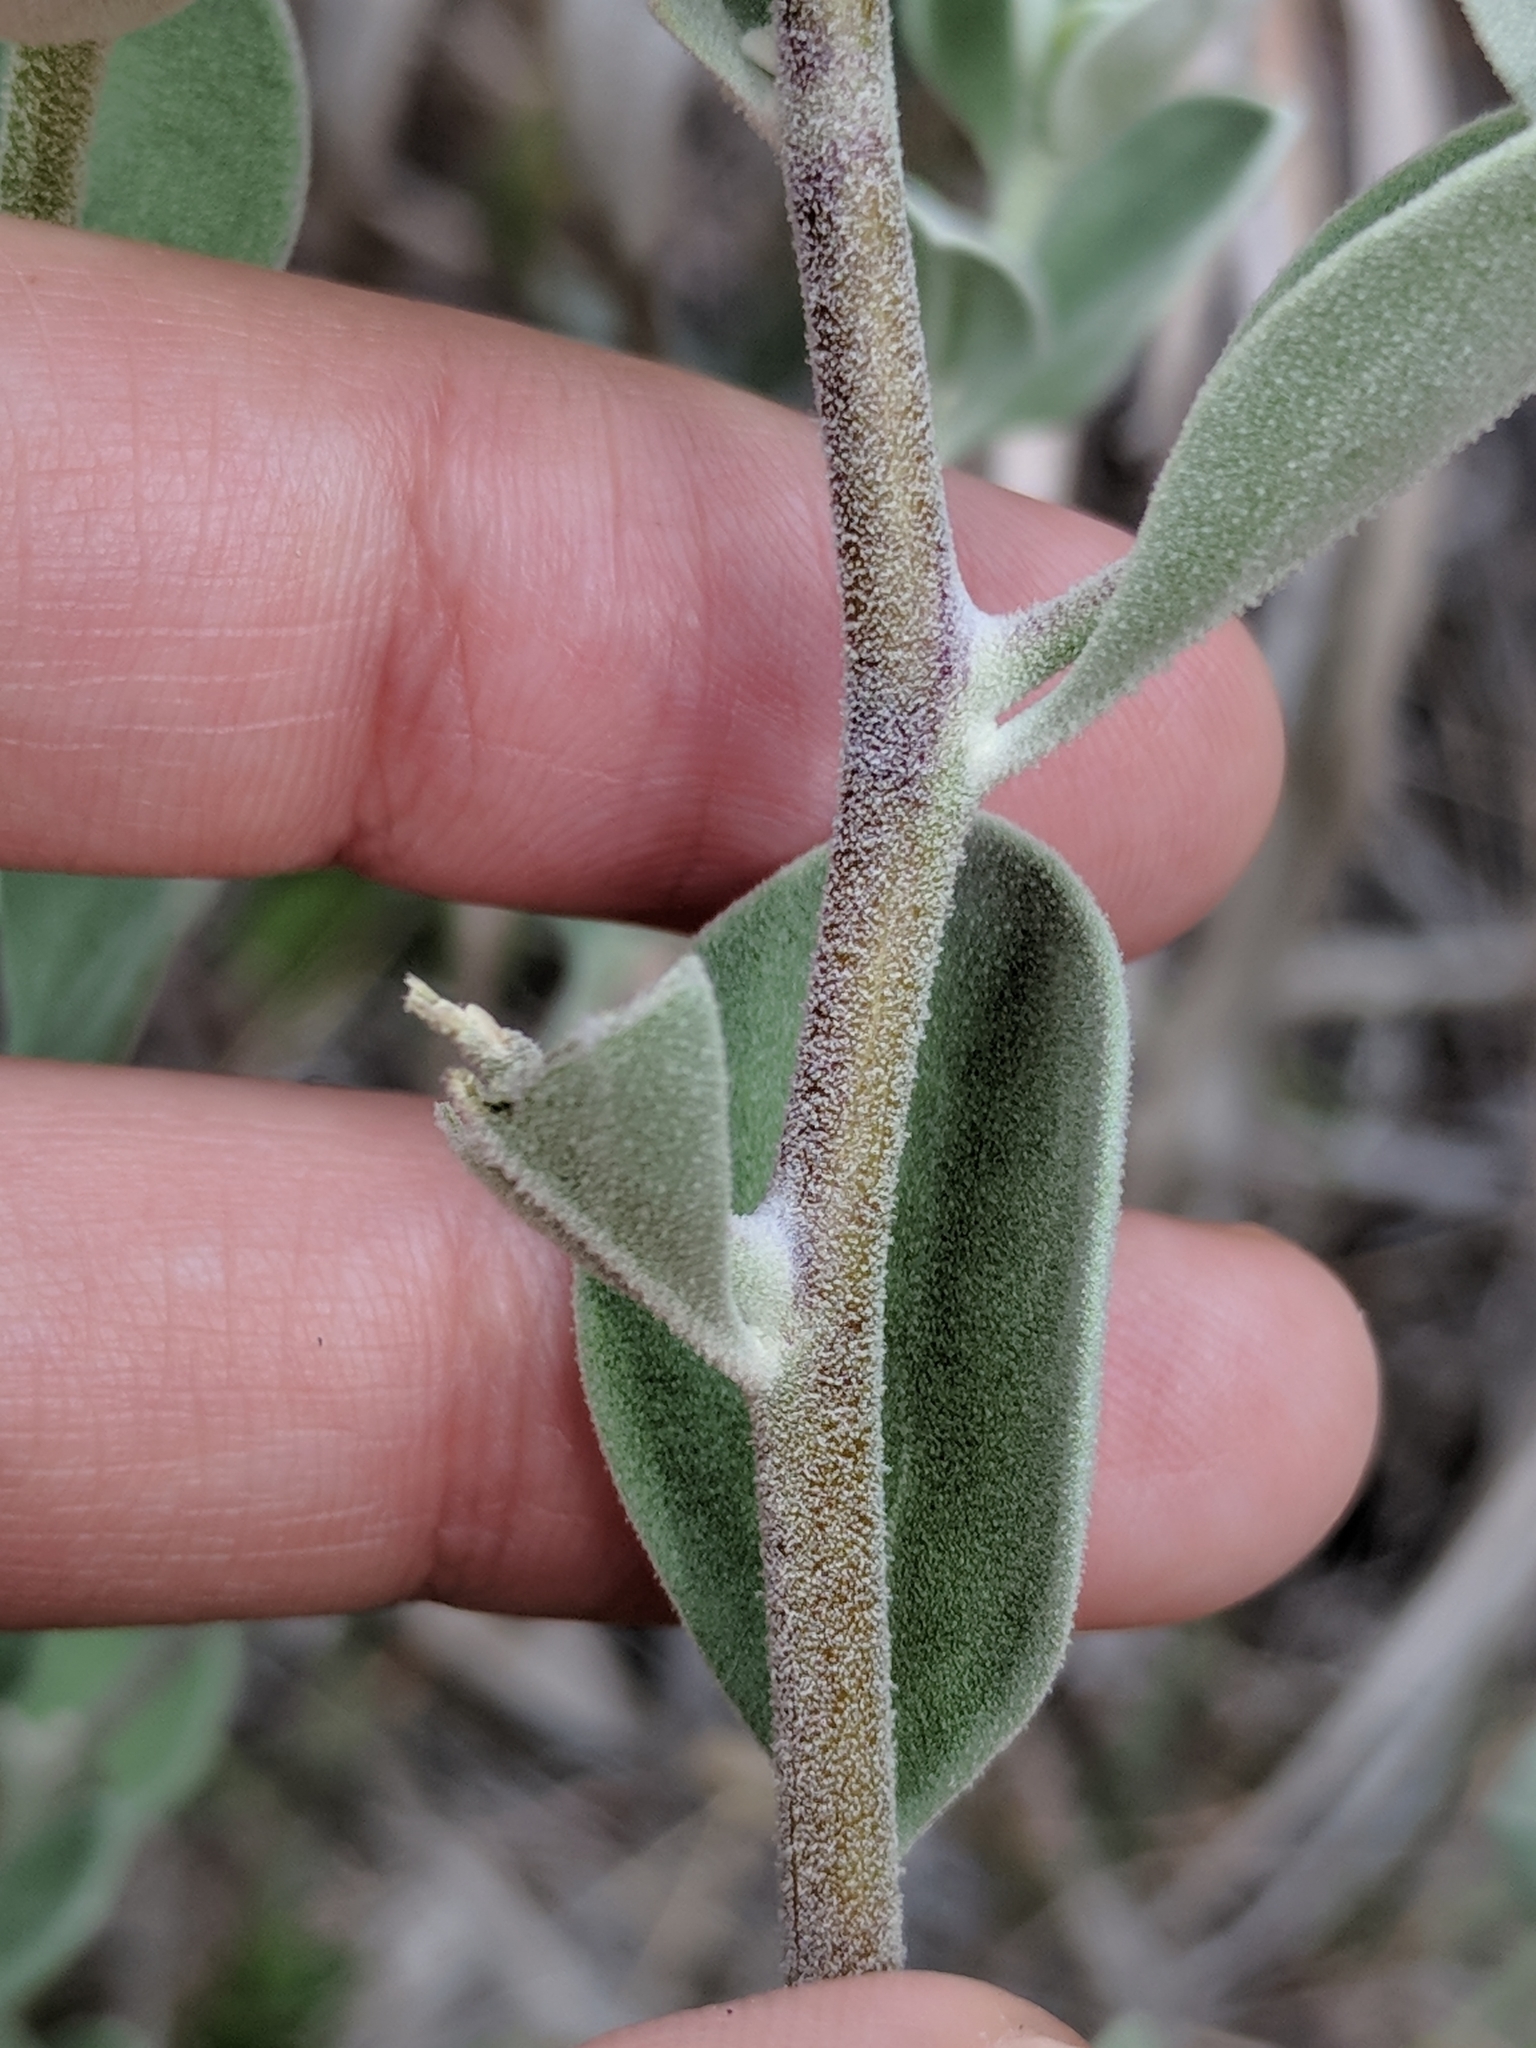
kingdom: Plantae
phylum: Tracheophyta
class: Magnoliopsida
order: Lamiales
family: Scrophulariaceae
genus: Leucophyllum
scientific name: Leucophyllum frutescens
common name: Texas silverleaf
